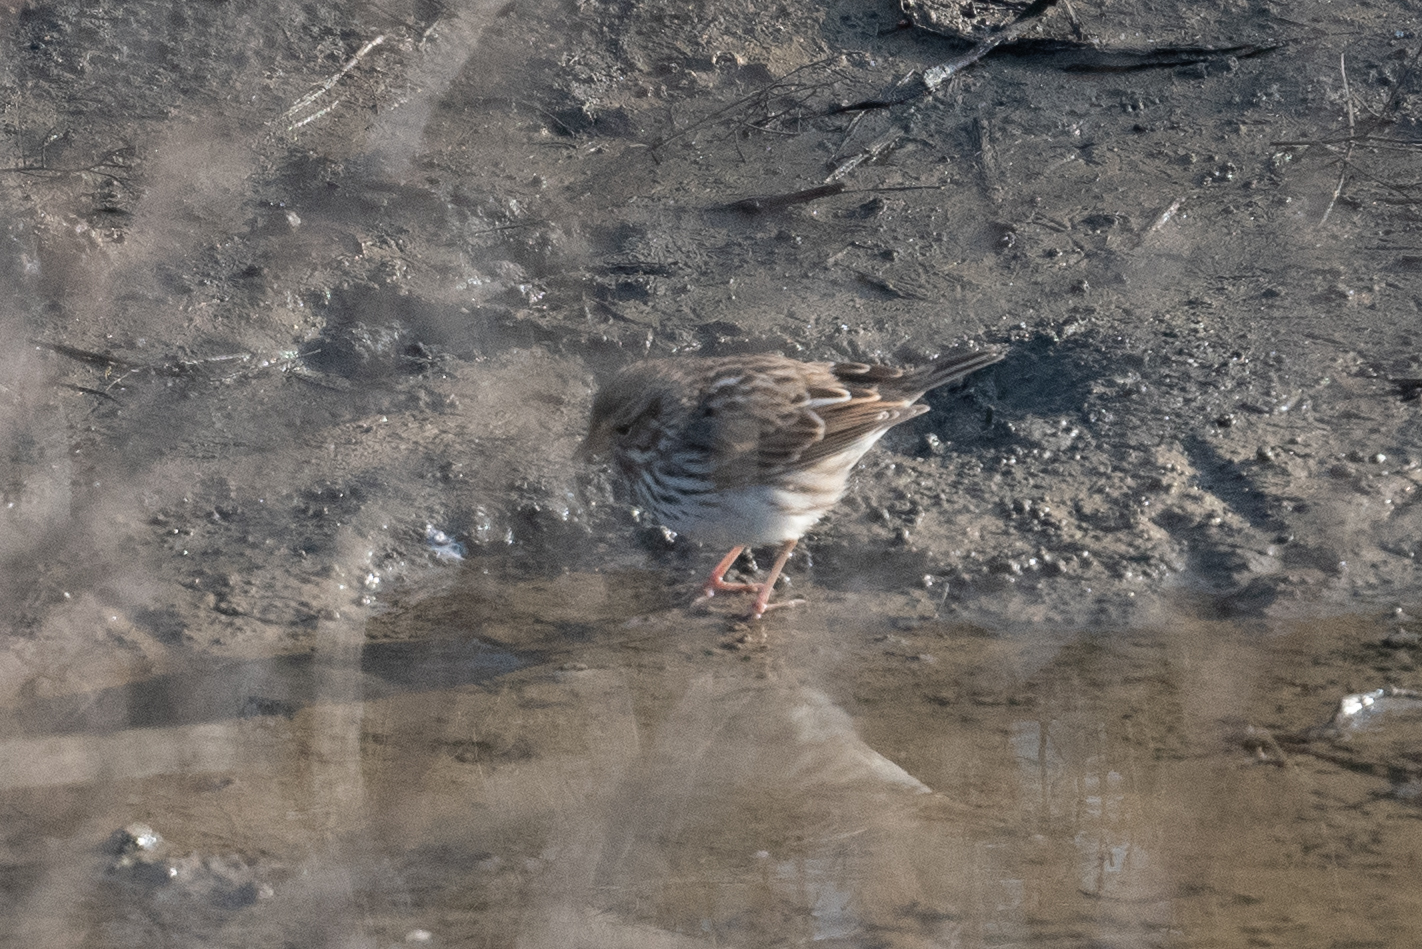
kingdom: Animalia
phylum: Chordata
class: Aves
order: Passeriformes
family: Passerellidae
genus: Passerculus
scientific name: Passerculus sandwichensis
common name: Savannah sparrow
